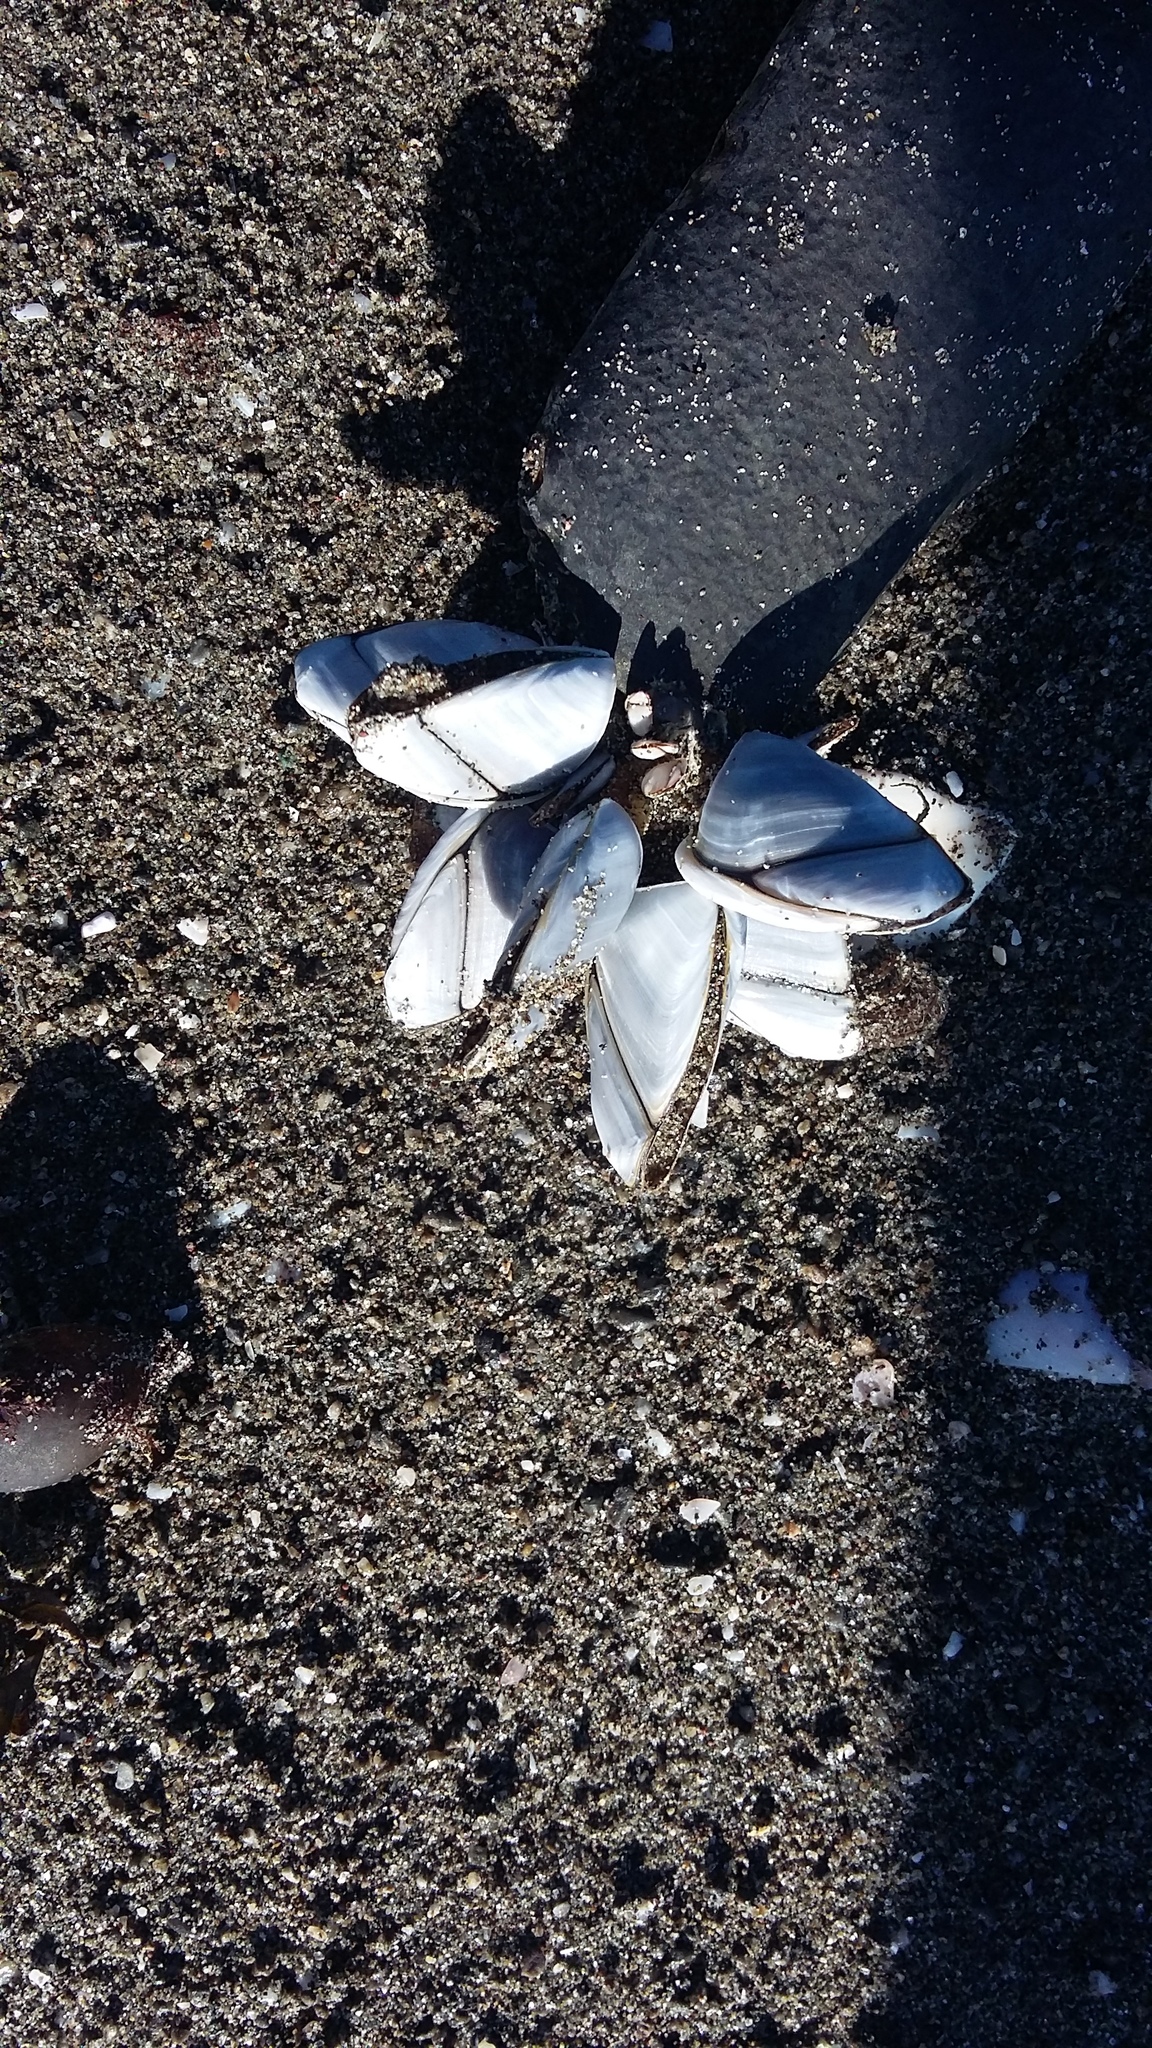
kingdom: Animalia
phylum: Arthropoda
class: Maxillopoda
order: Pedunculata
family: Lepadidae
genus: Lepas
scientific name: Lepas anatifera
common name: Common goose barnacle
